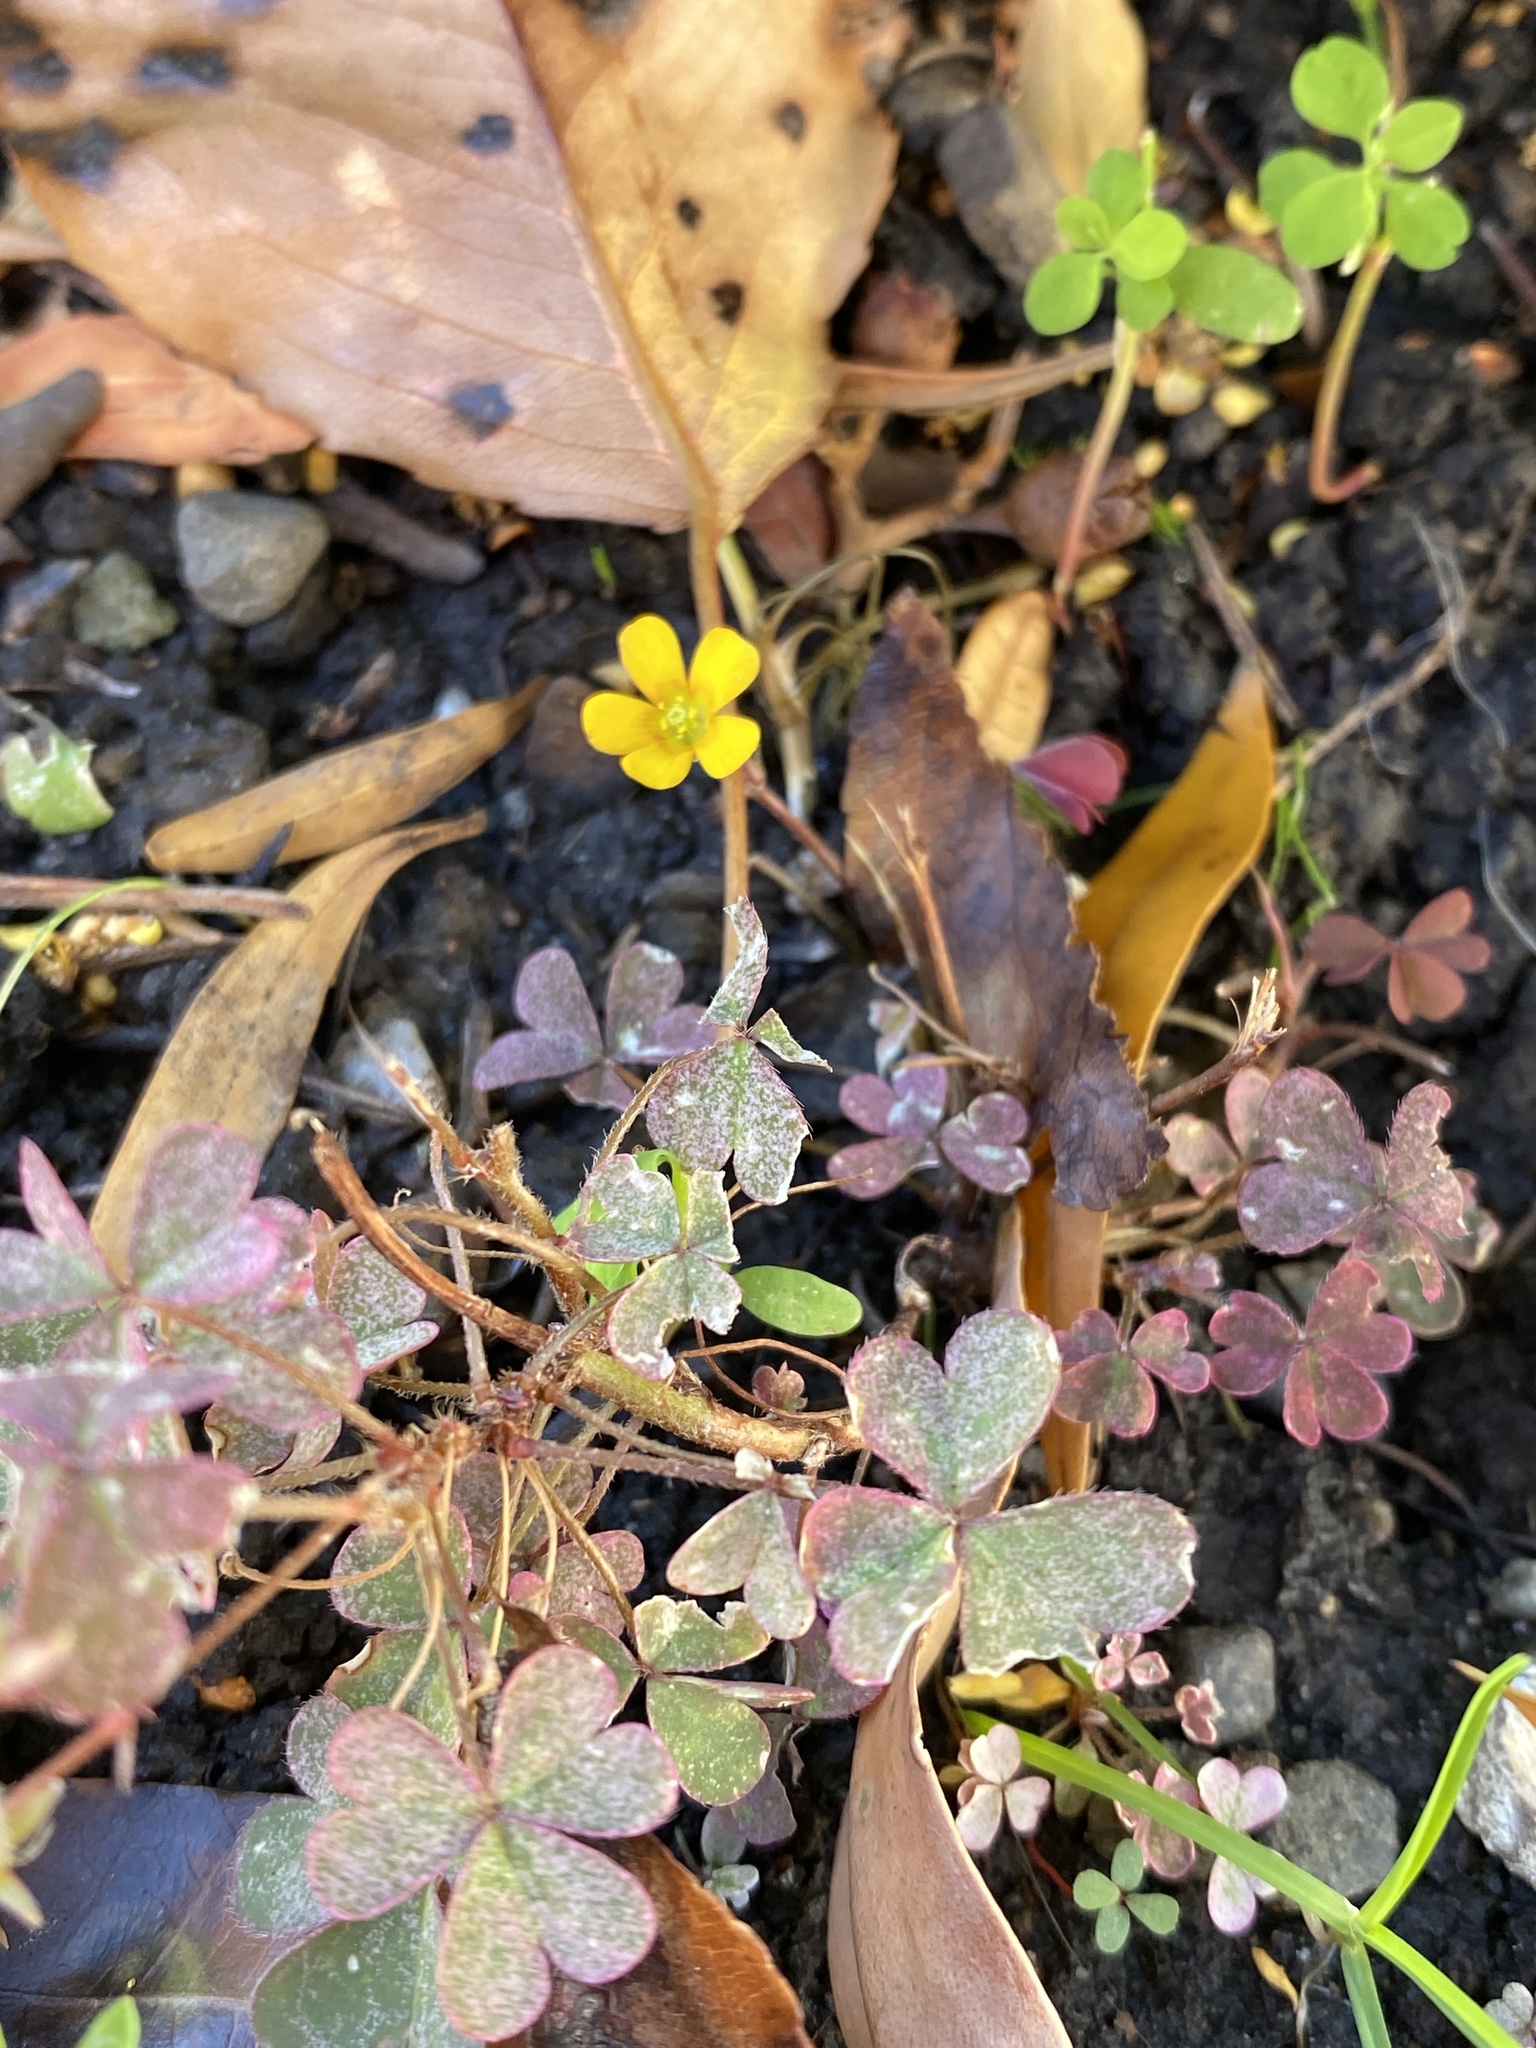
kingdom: Plantae
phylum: Tracheophyta
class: Magnoliopsida
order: Oxalidales
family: Oxalidaceae
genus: Oxalis
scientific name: Oxalis corniculata
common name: Procumbent yellow-sorrel
